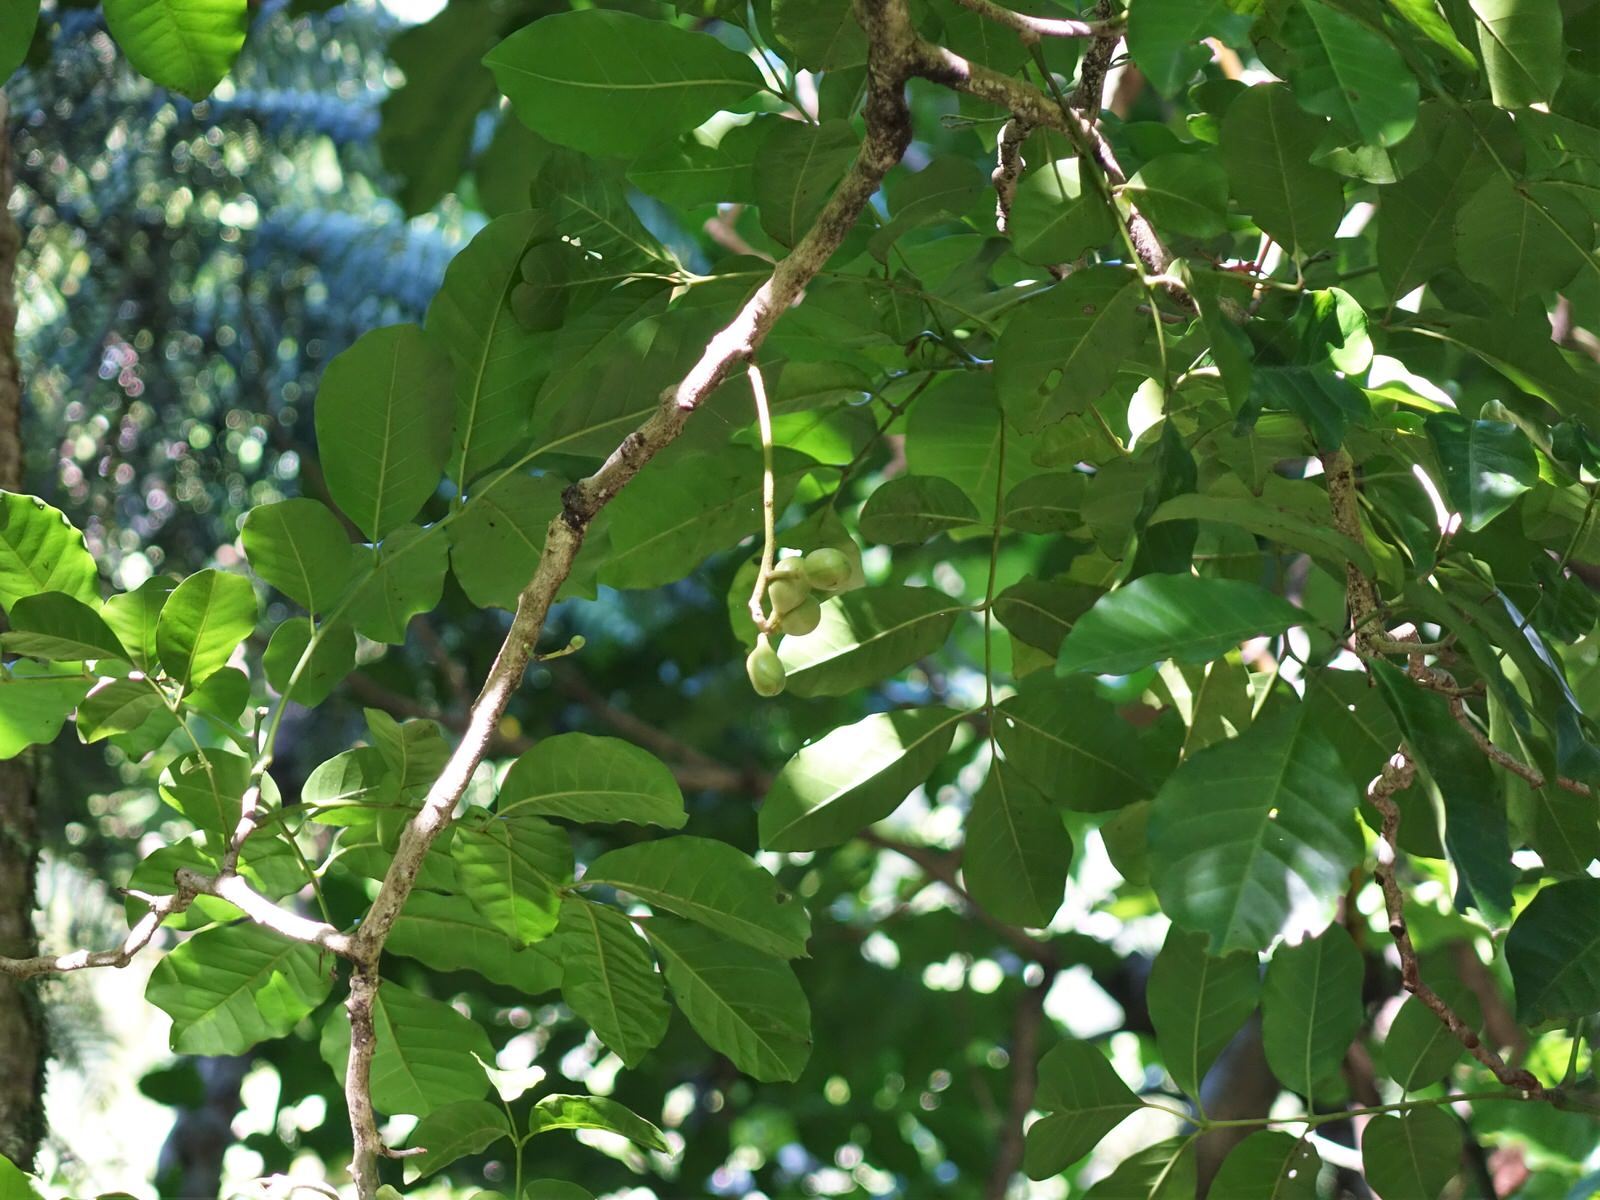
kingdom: Plantae
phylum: Tracheophyta
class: Magnoliopsida
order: Sapindales
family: Meliaceae
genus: Didymocheton
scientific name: Didymocheton spectabilis
